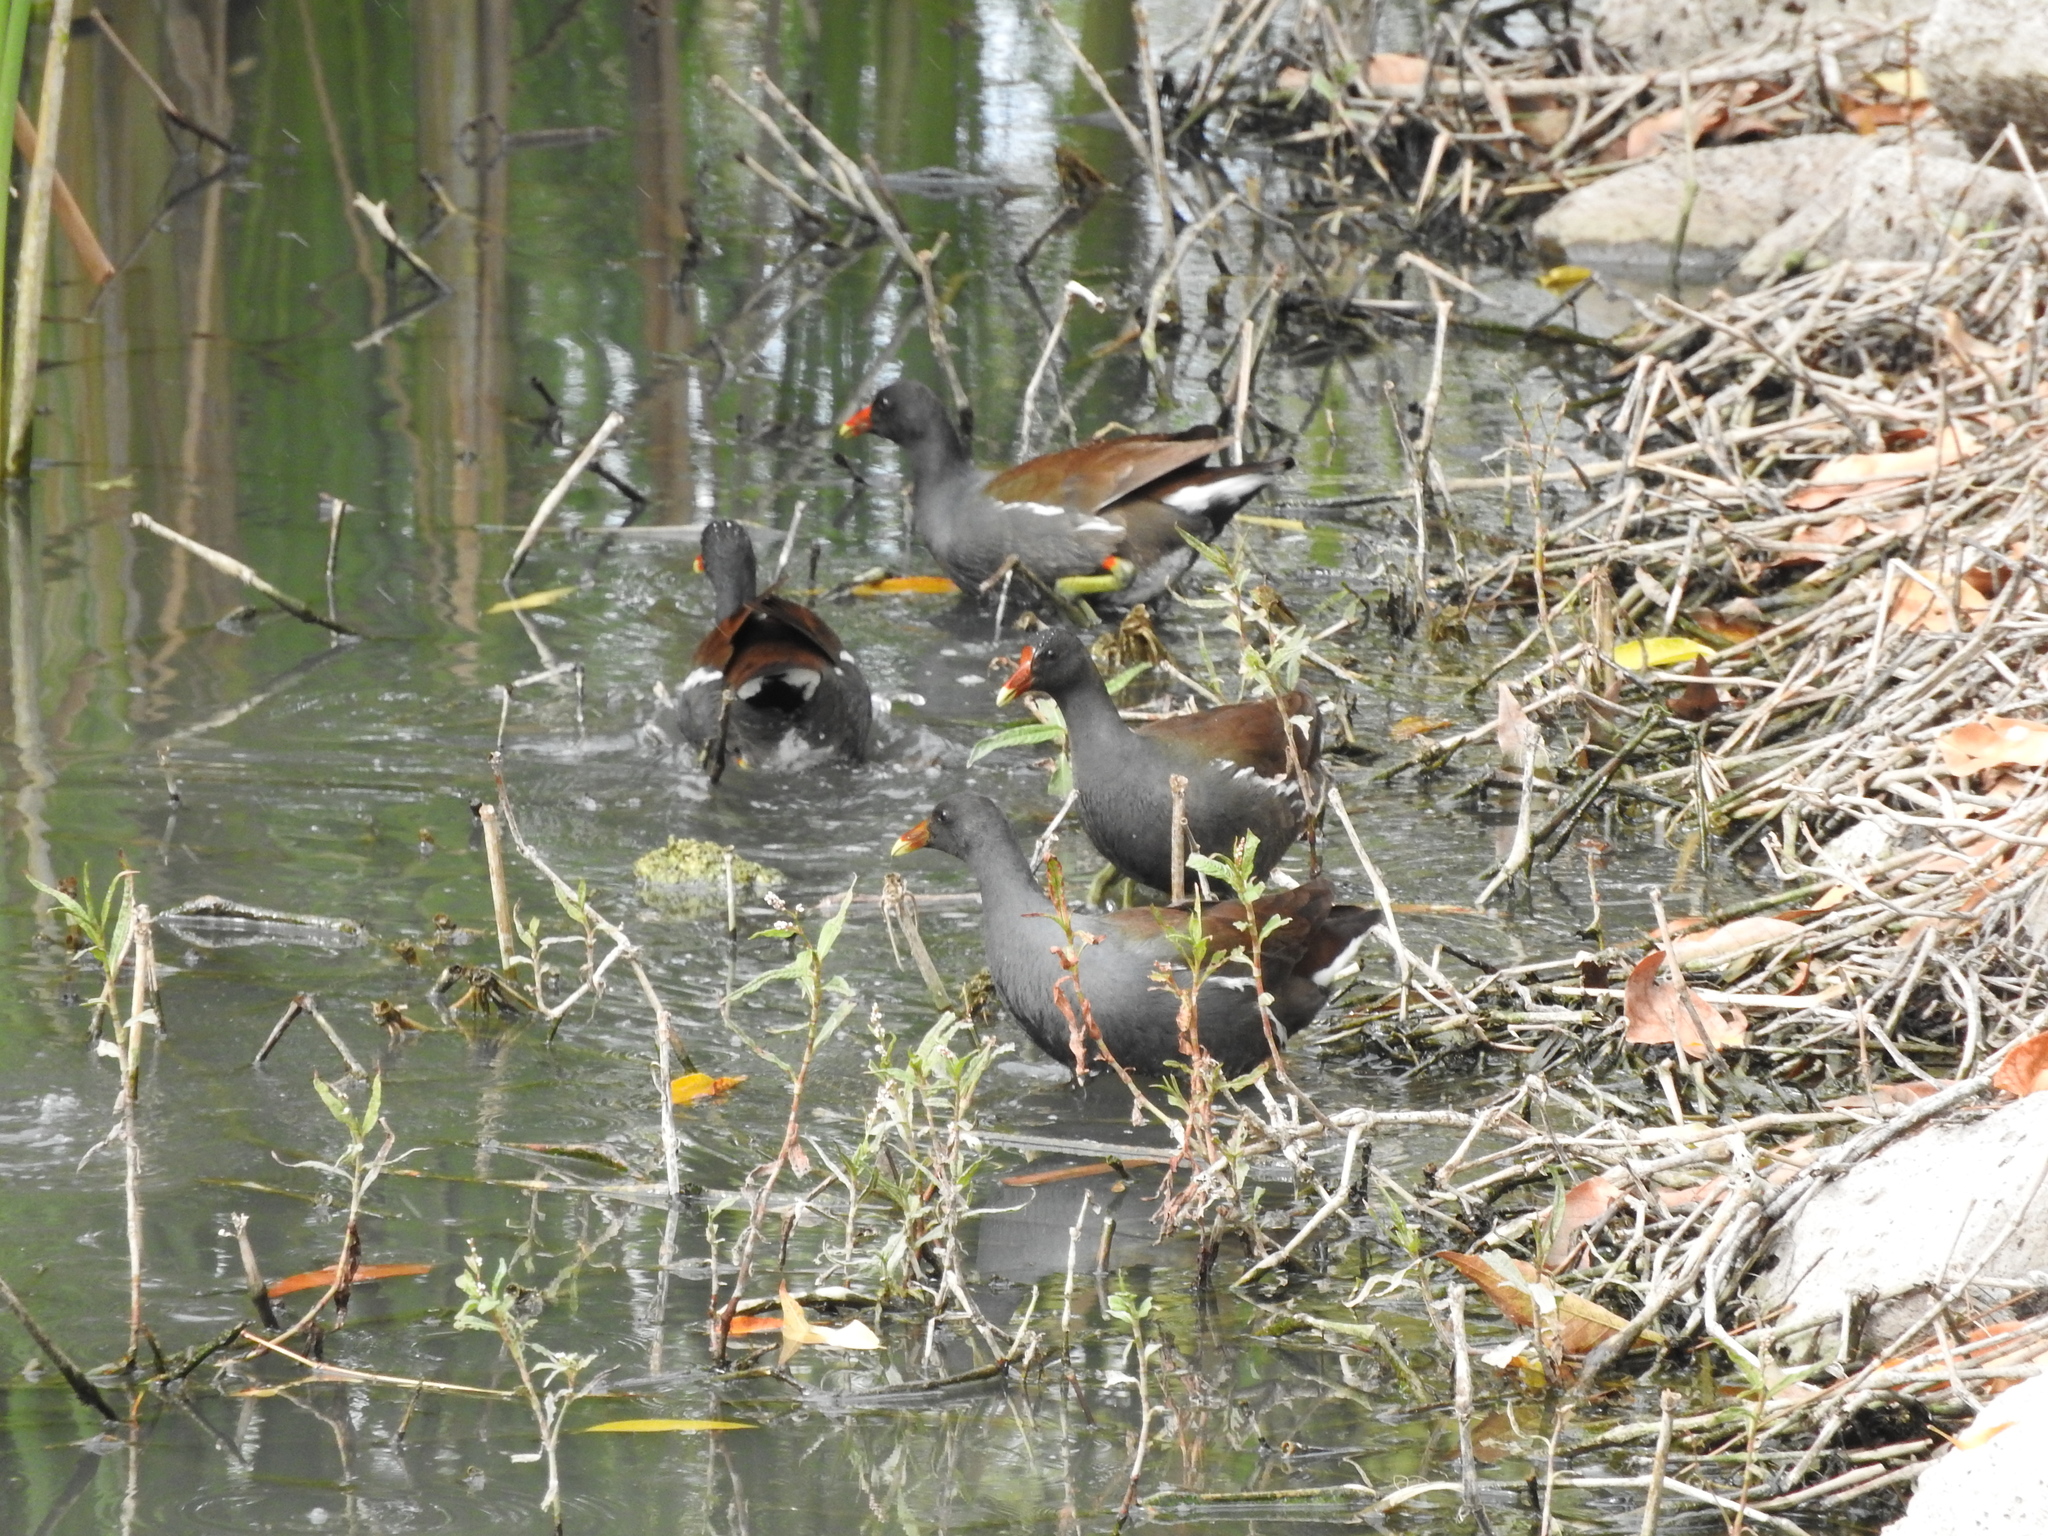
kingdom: Animalia
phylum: Chordata
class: Aves
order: Gruiformes
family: Rallidae
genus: Gallinula
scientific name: Gallinula chloropus
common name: Common moorhen
